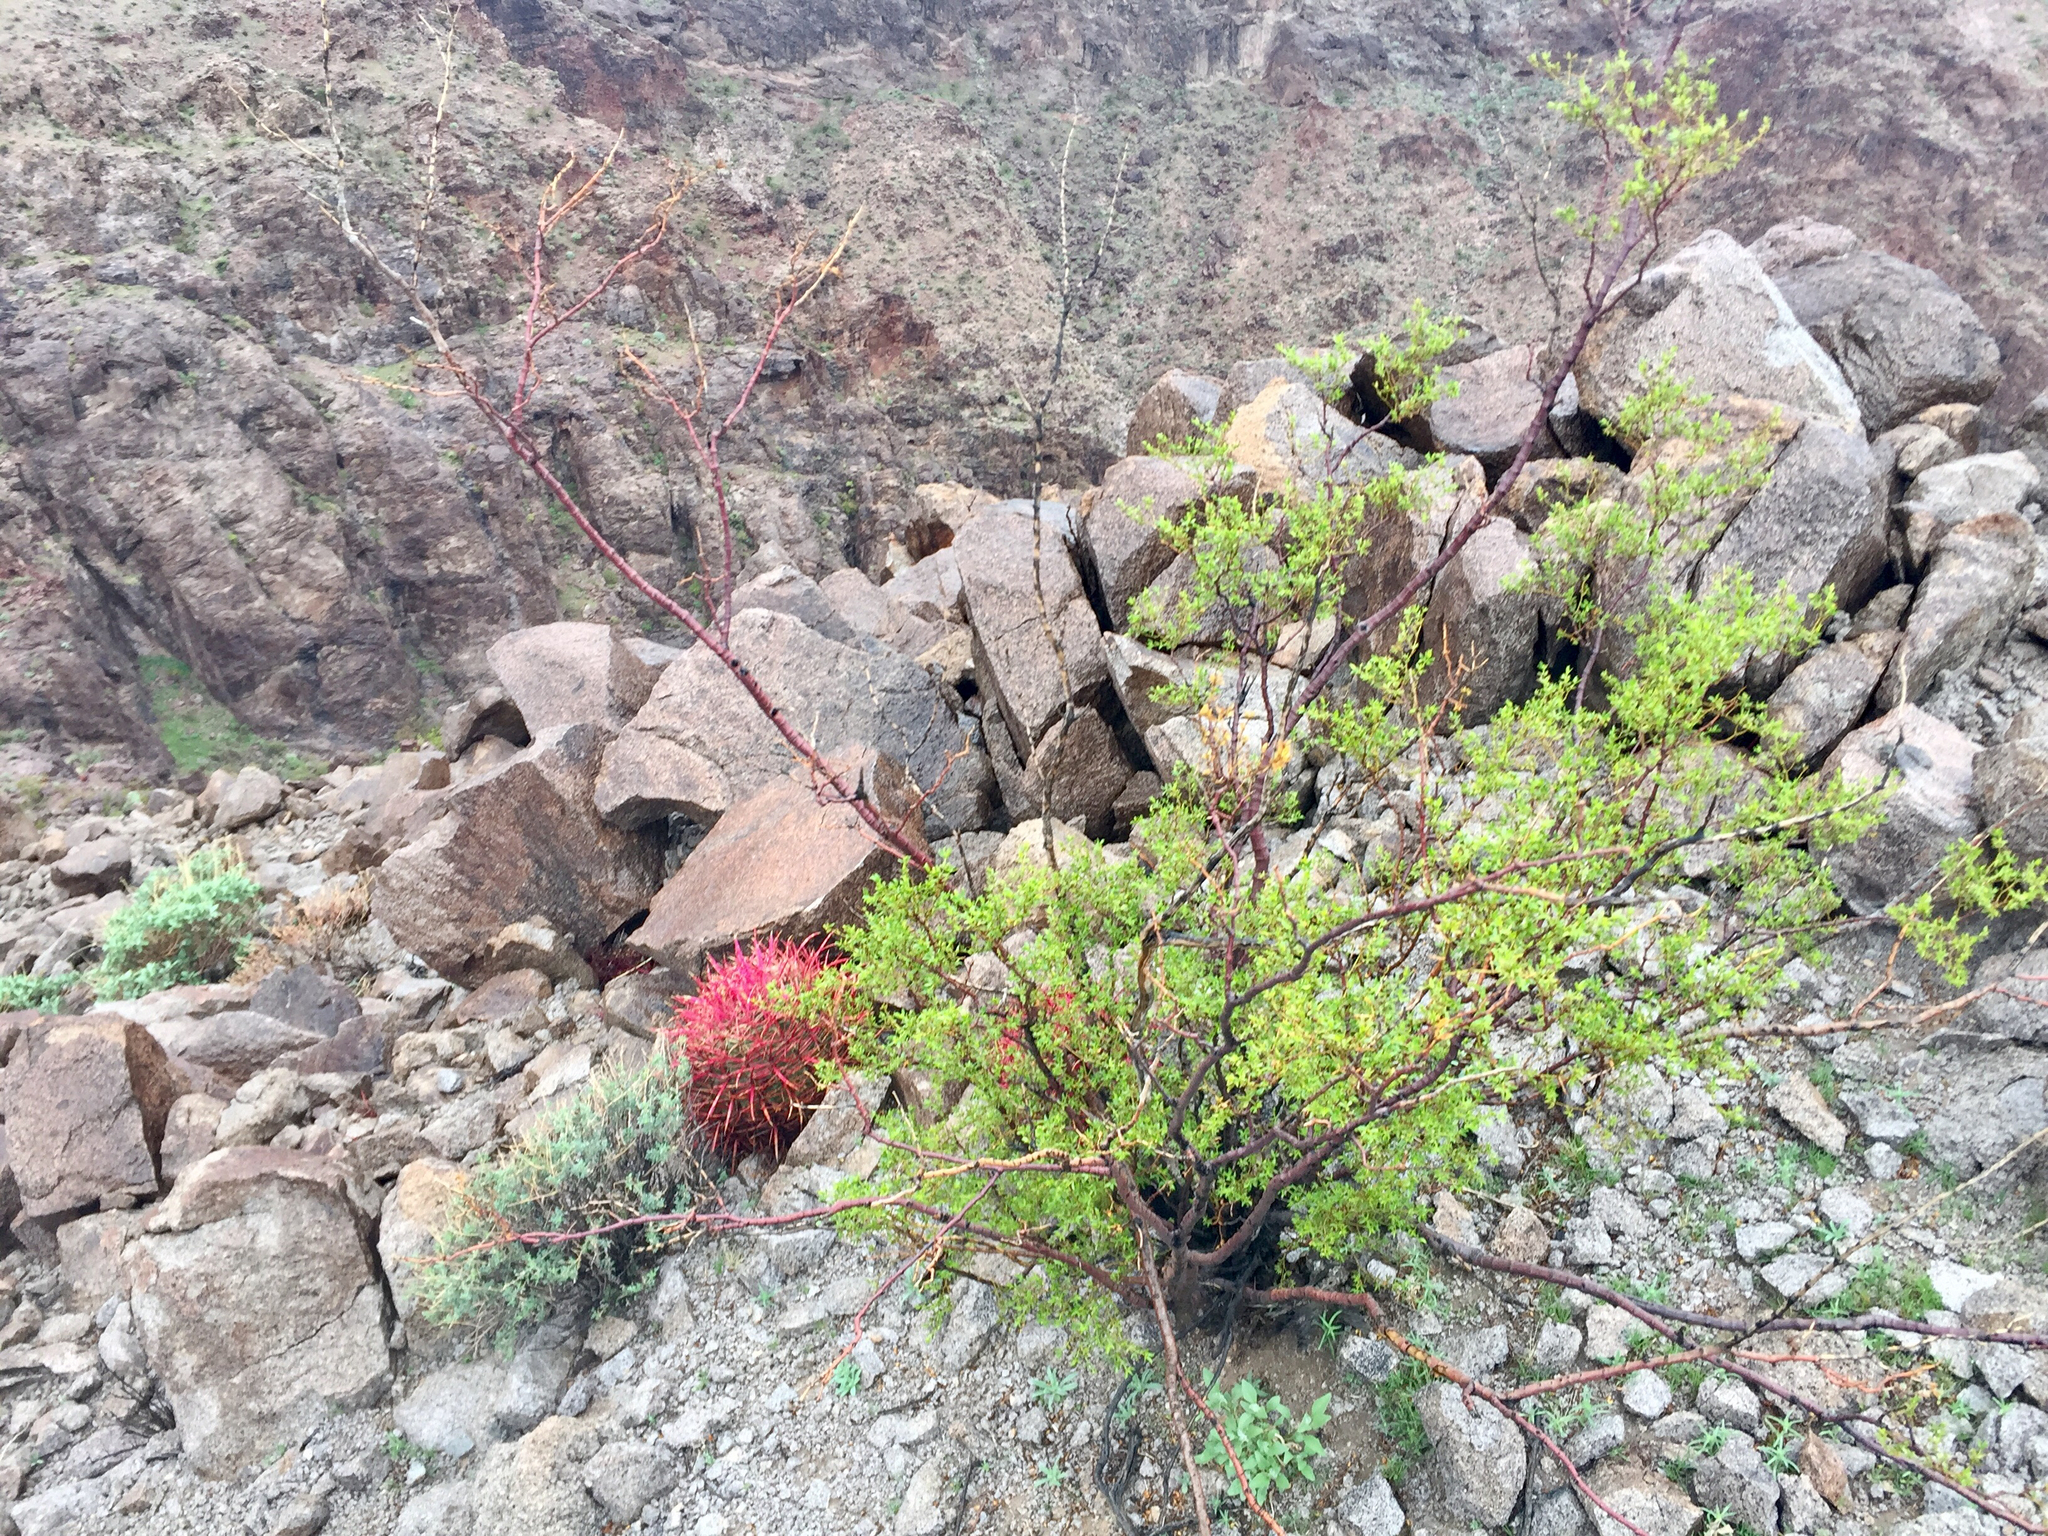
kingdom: Plantae
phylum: Tracheophyta
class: Magnoliopsida
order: Zygophyllales
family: Zygophyllaceae
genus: Larrea
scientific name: Larrea tridentata
